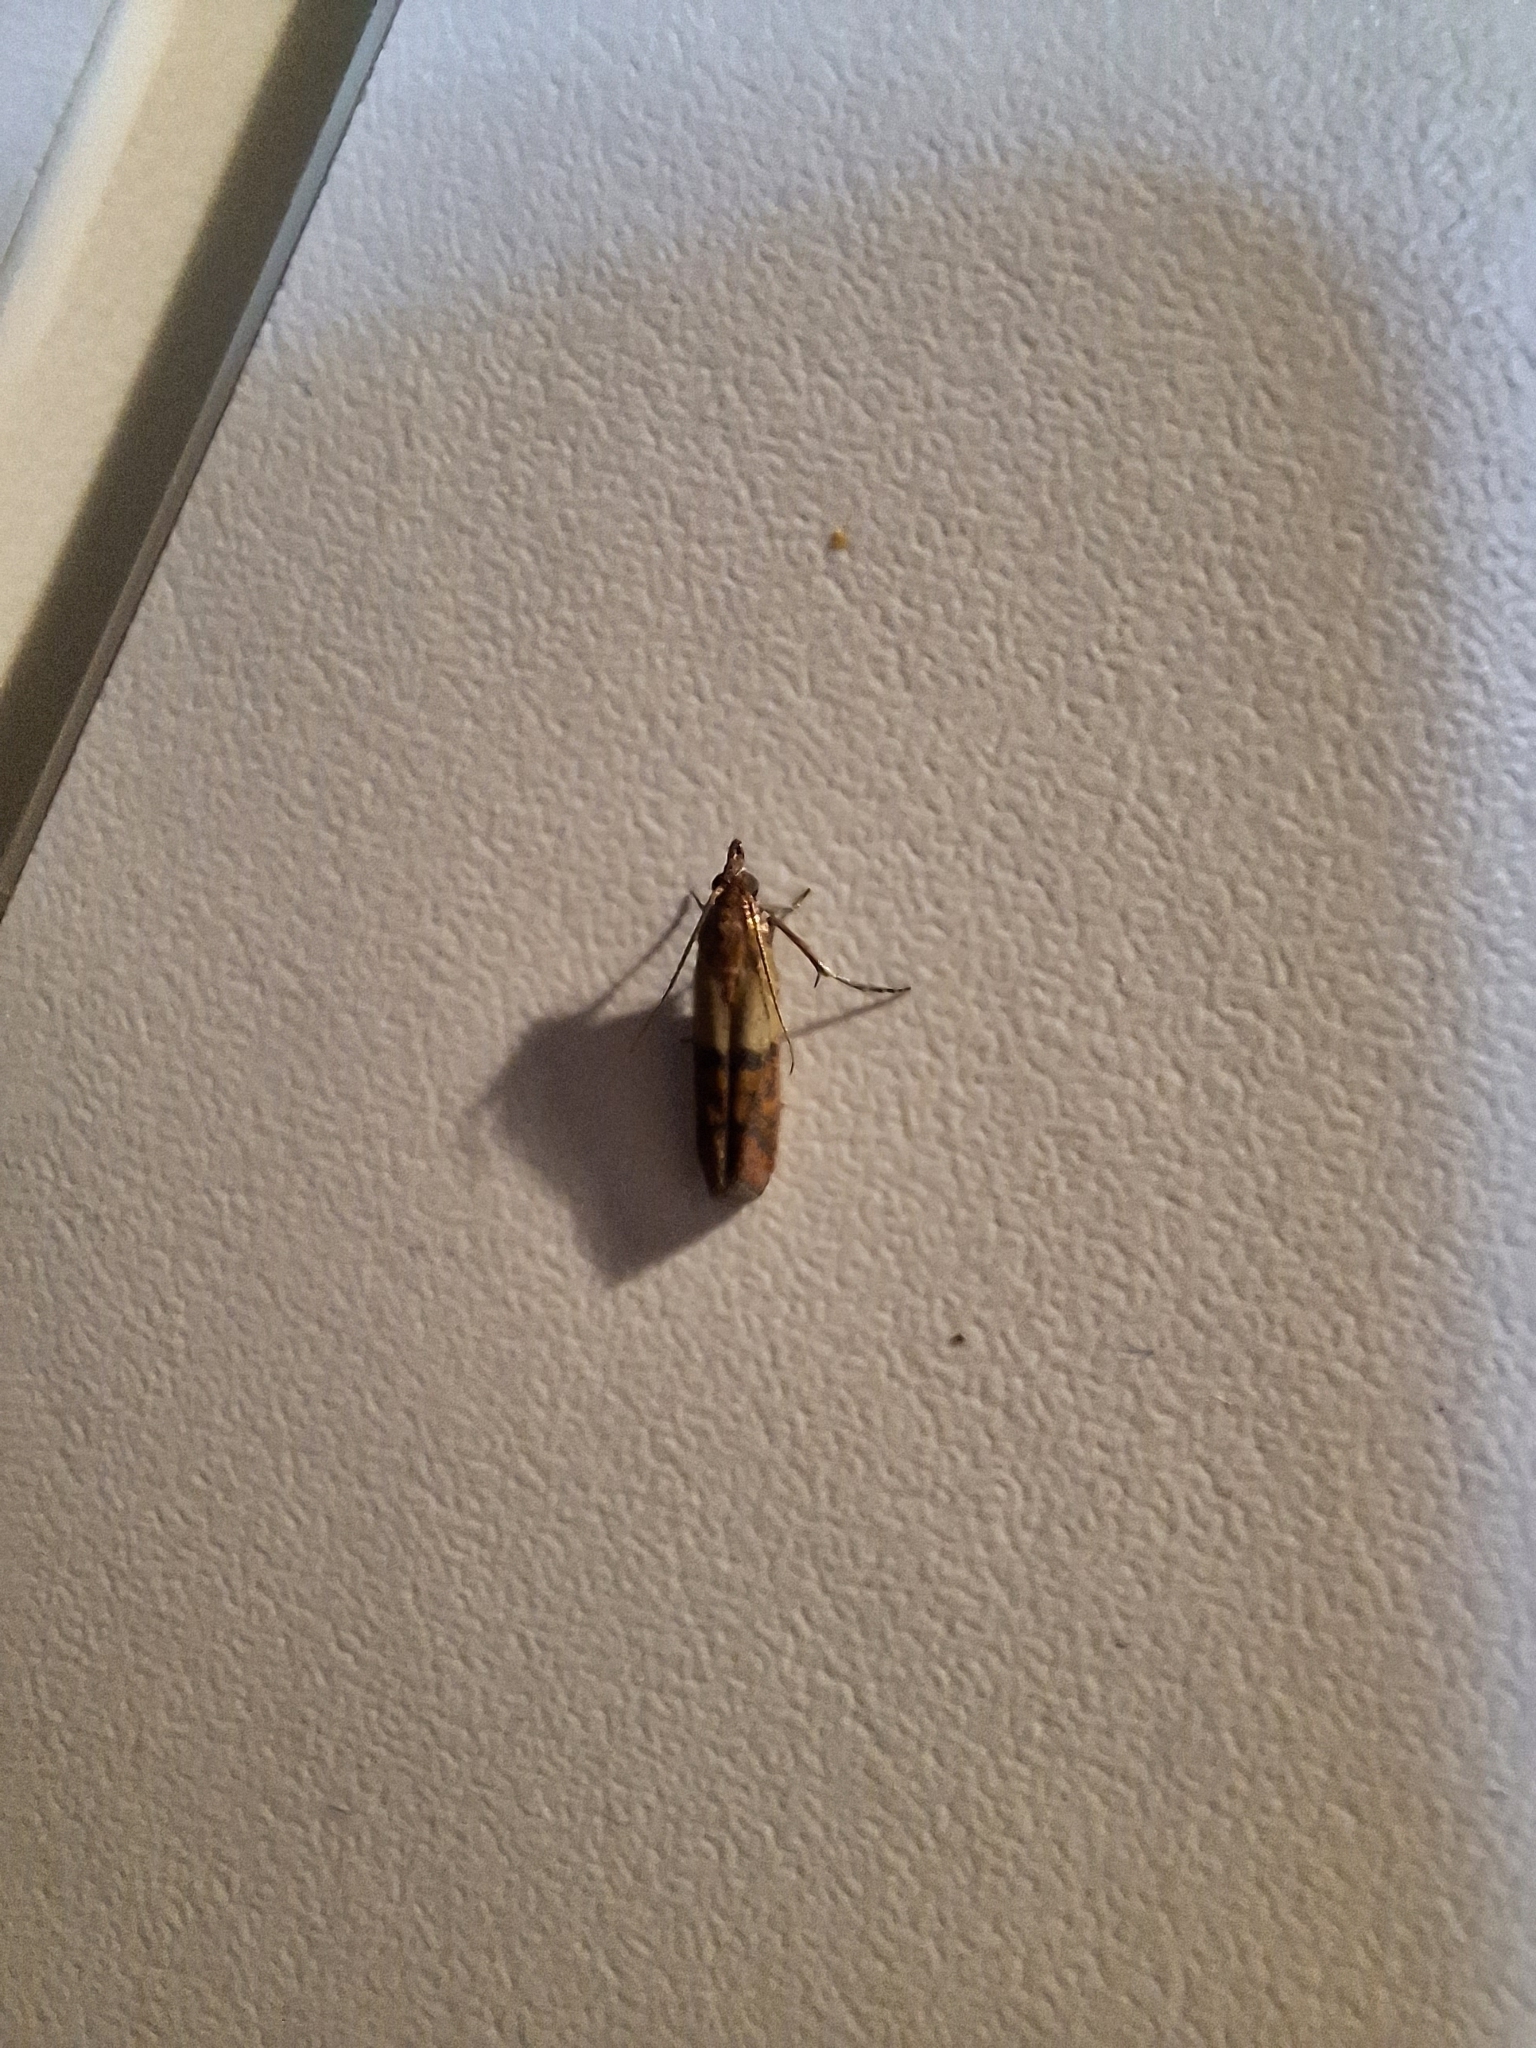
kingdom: Animalia
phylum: Arthropoda
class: Insecta
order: Lepidoptera
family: Pyralidae
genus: Plodia
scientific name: Plodia interpunctella
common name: Indian meal moth
